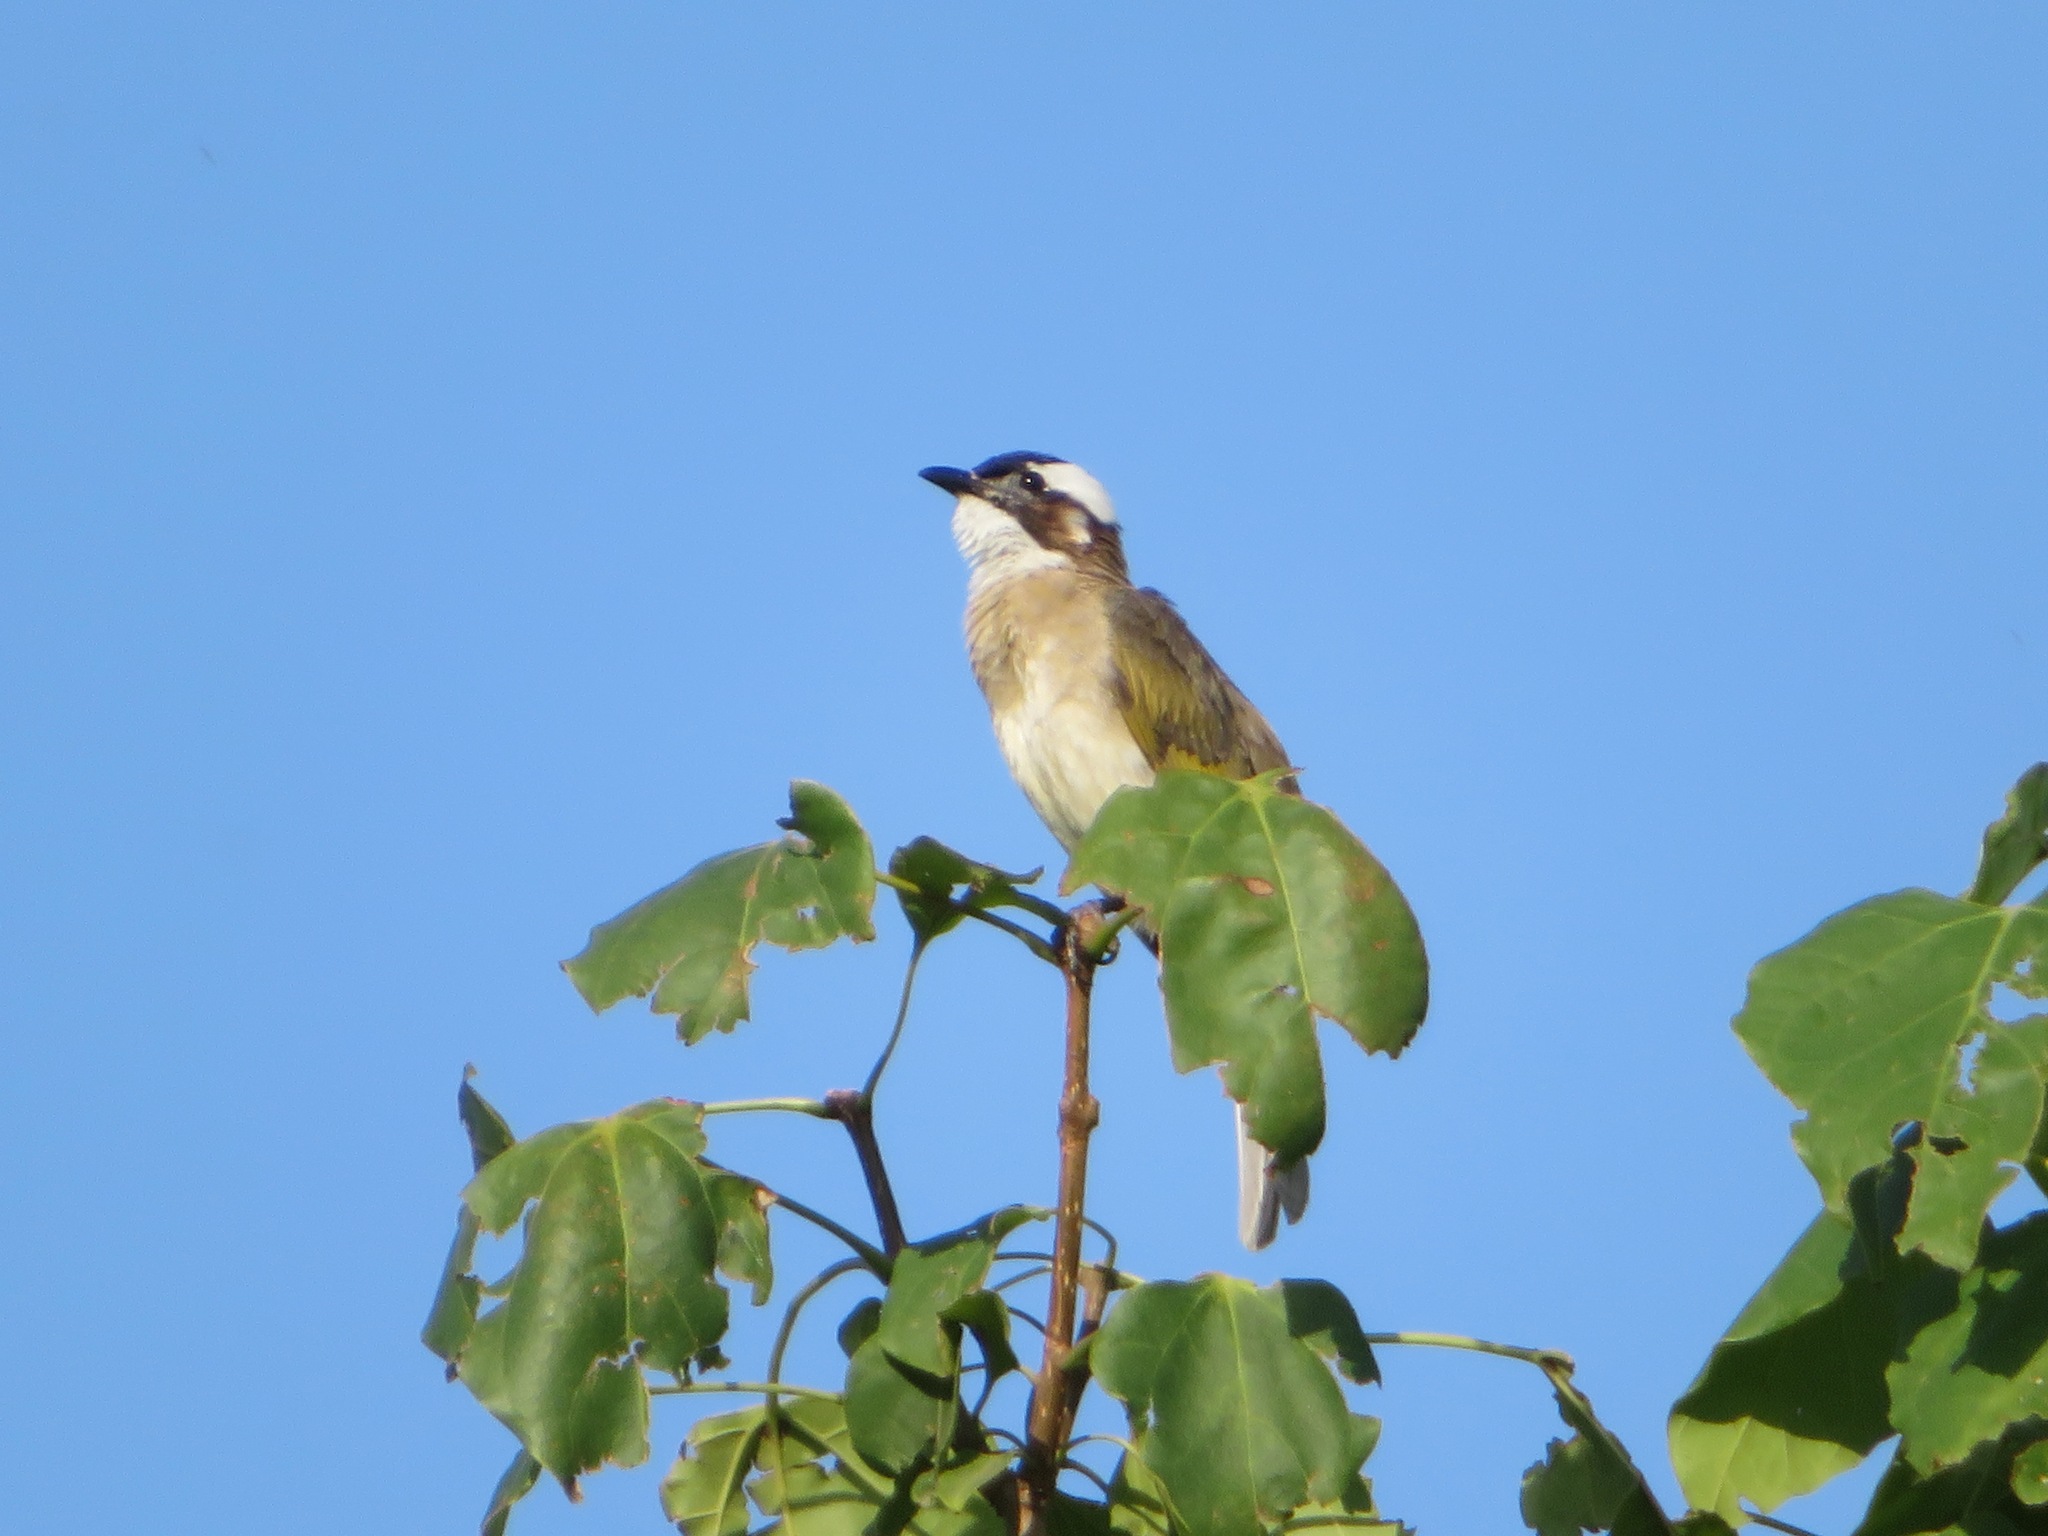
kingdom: Animalia
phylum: Chordata
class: Aves
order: Passeriformes
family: Pycnonotidae
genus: Pycnonotus
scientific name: Pycnonotus sinensis
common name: Light-vented bulbul
